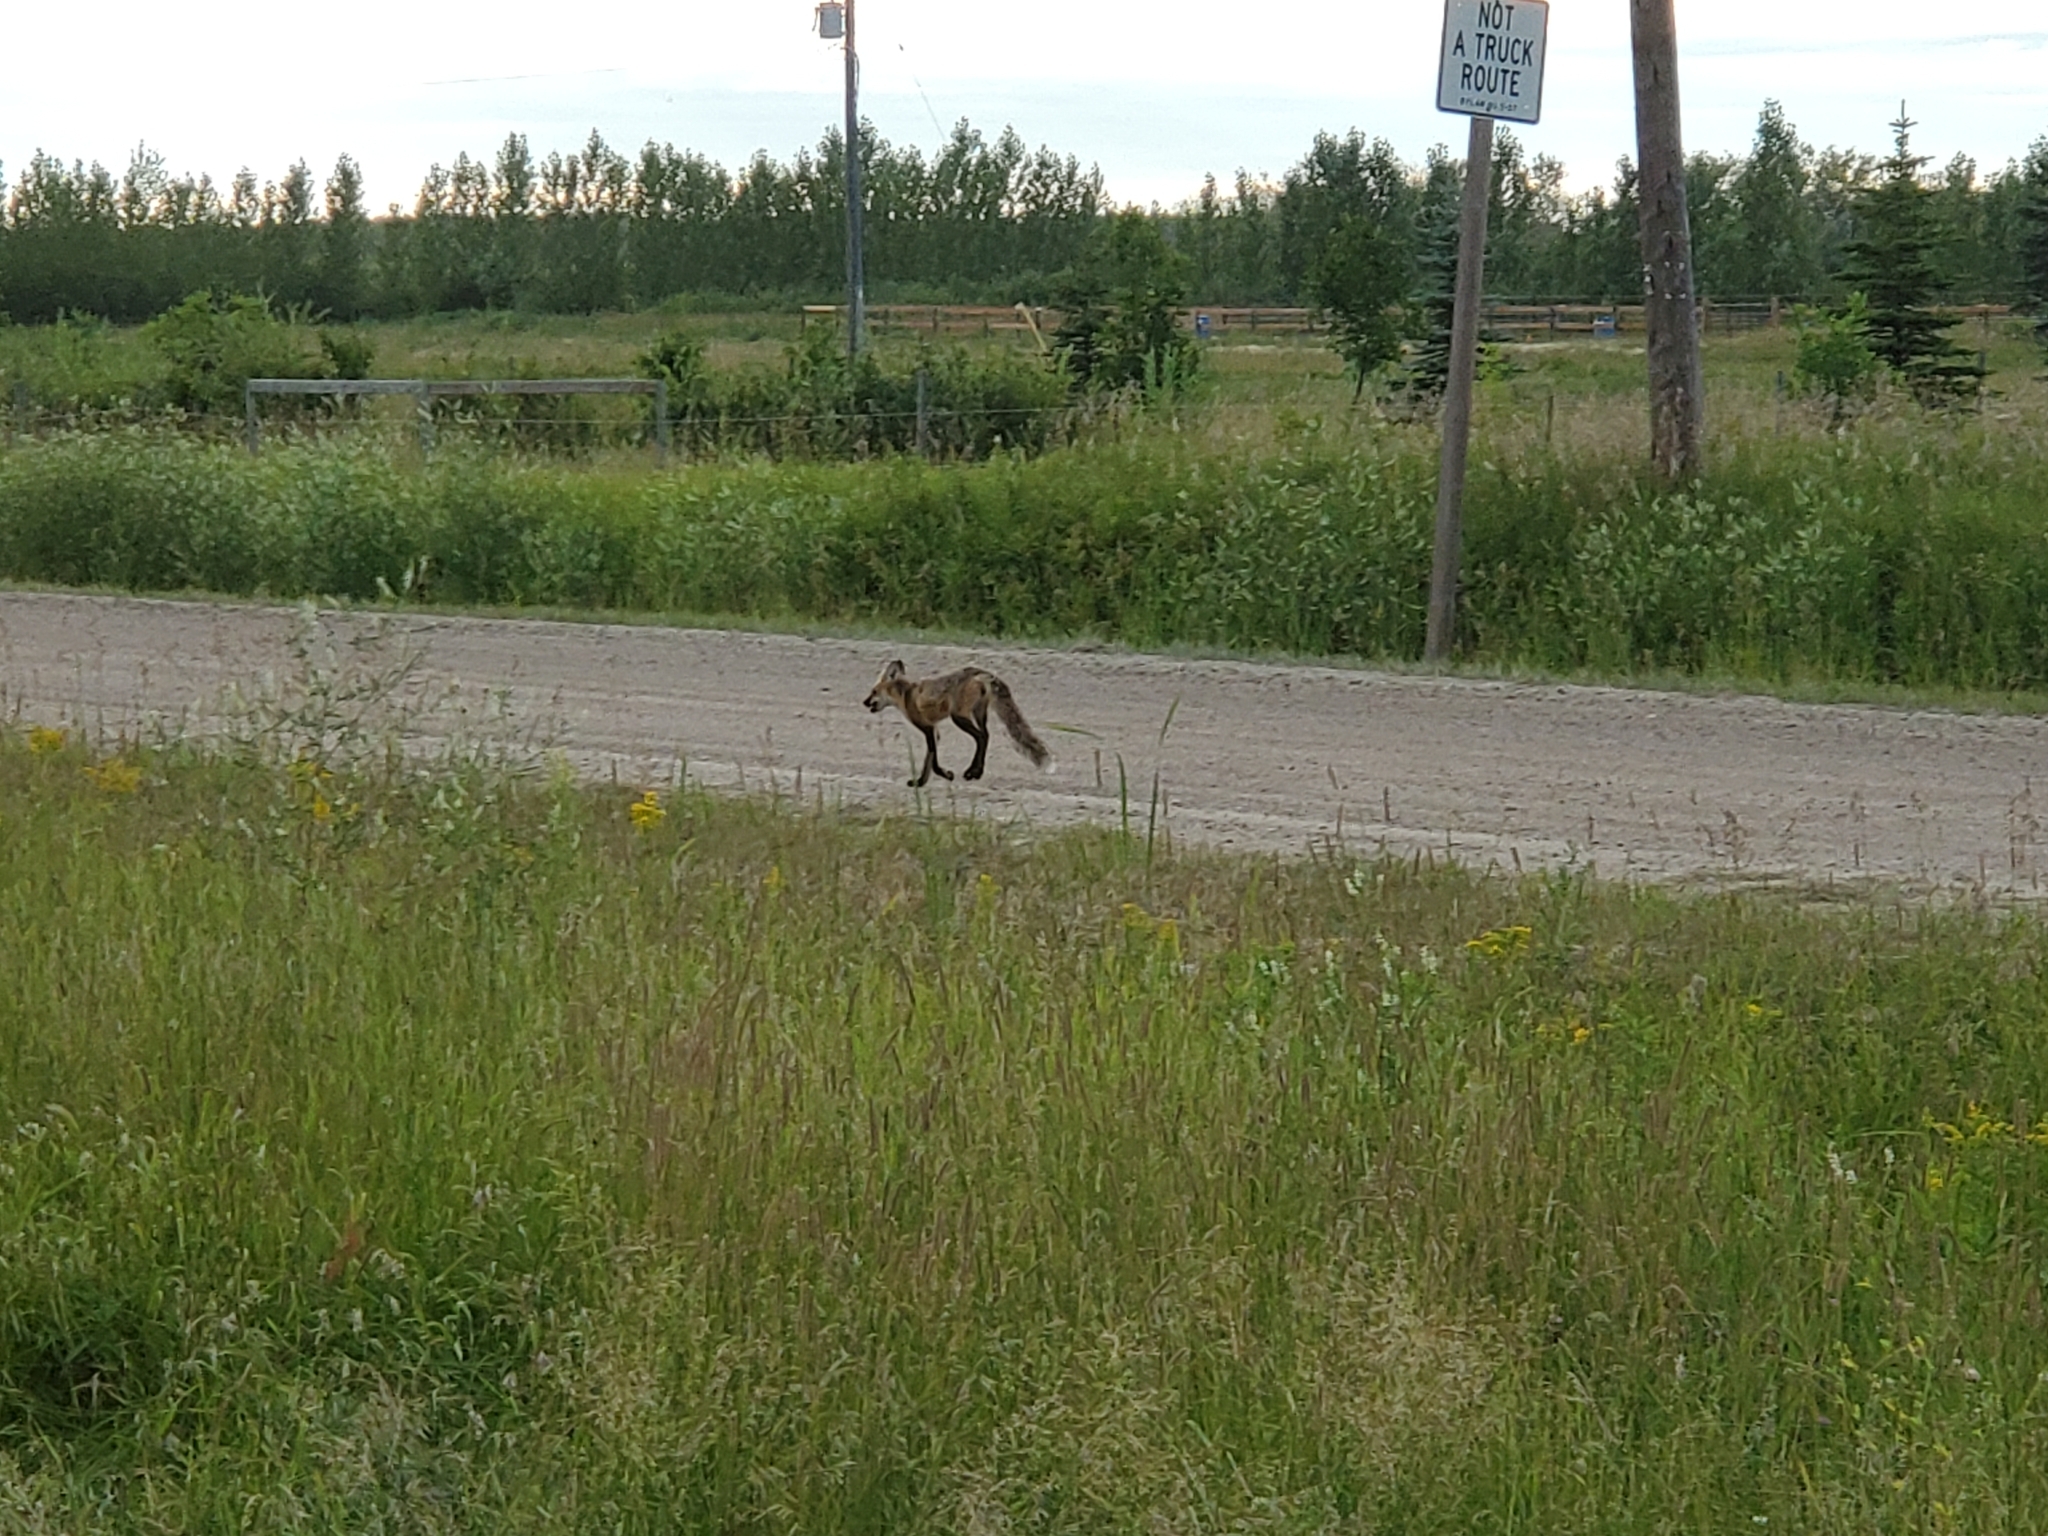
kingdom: Animalia
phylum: Chordata
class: Mammalia
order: Carnivora
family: Canidae
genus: Vulpes
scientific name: Vulpes vulpes
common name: Red fox
